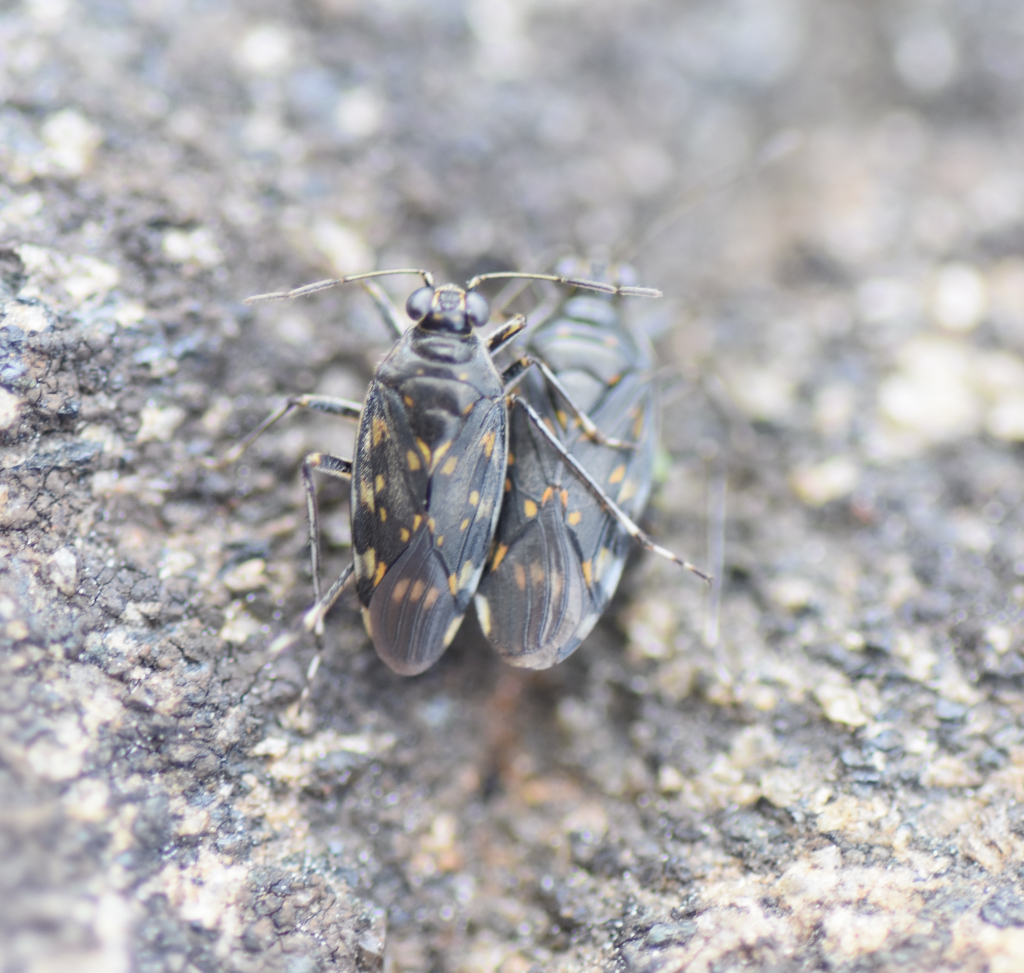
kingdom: Animalia
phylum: Arthropoda
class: Insecta
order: Hemiptera
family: Saldidae
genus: Pentacora
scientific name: Pentacora ligata
